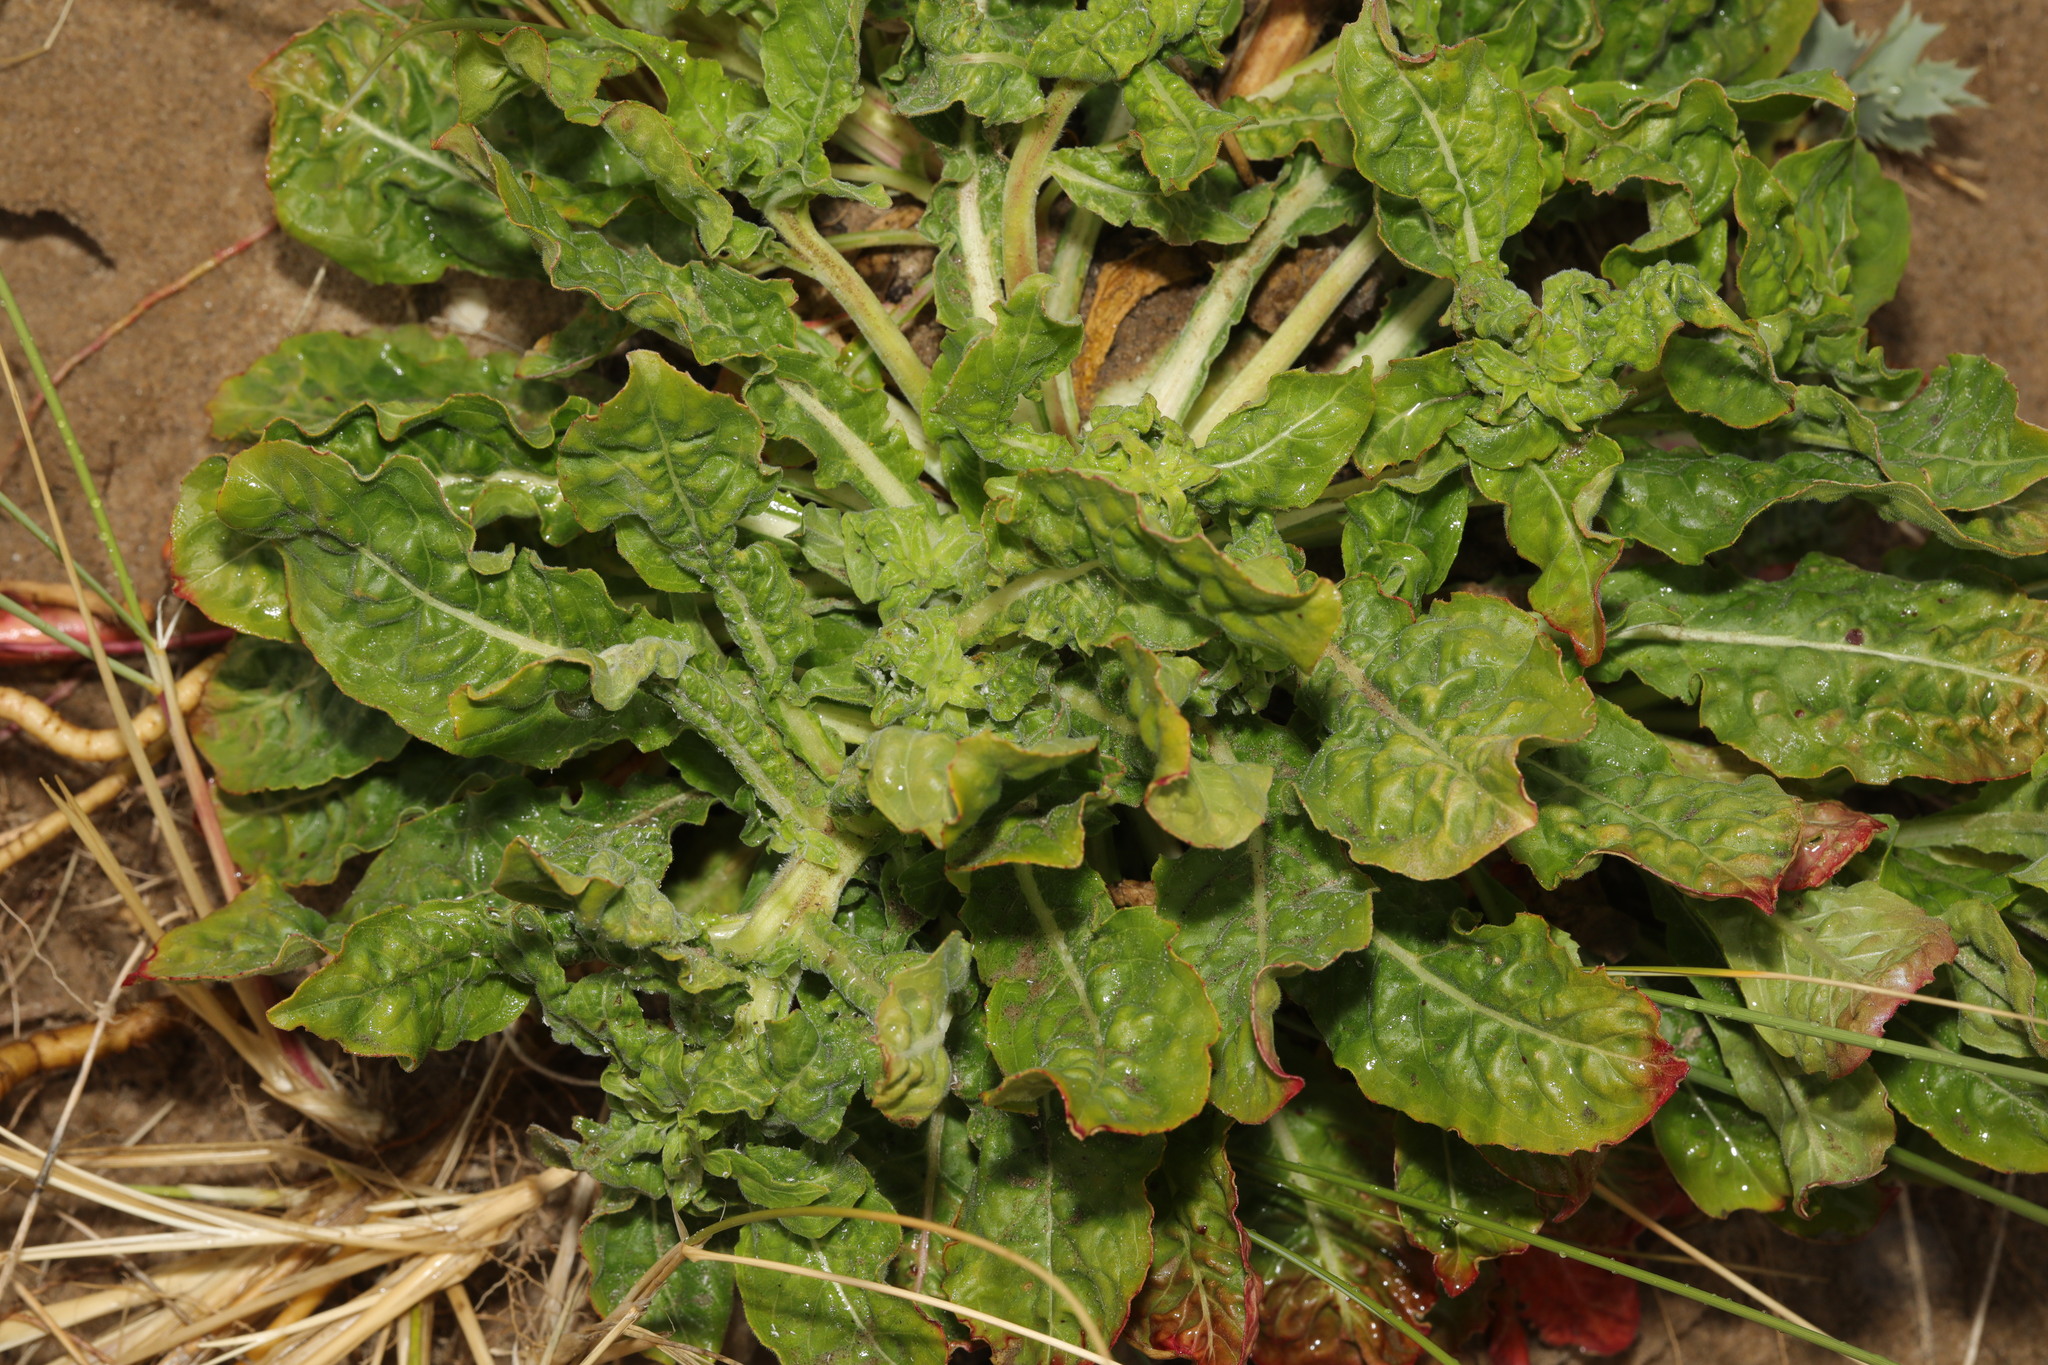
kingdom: Plantae
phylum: Tracheophyta
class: Magnoliopsida
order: Caryophyllales
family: Amaranthaceae
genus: Beta
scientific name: Beta vulgaris
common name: Beet
